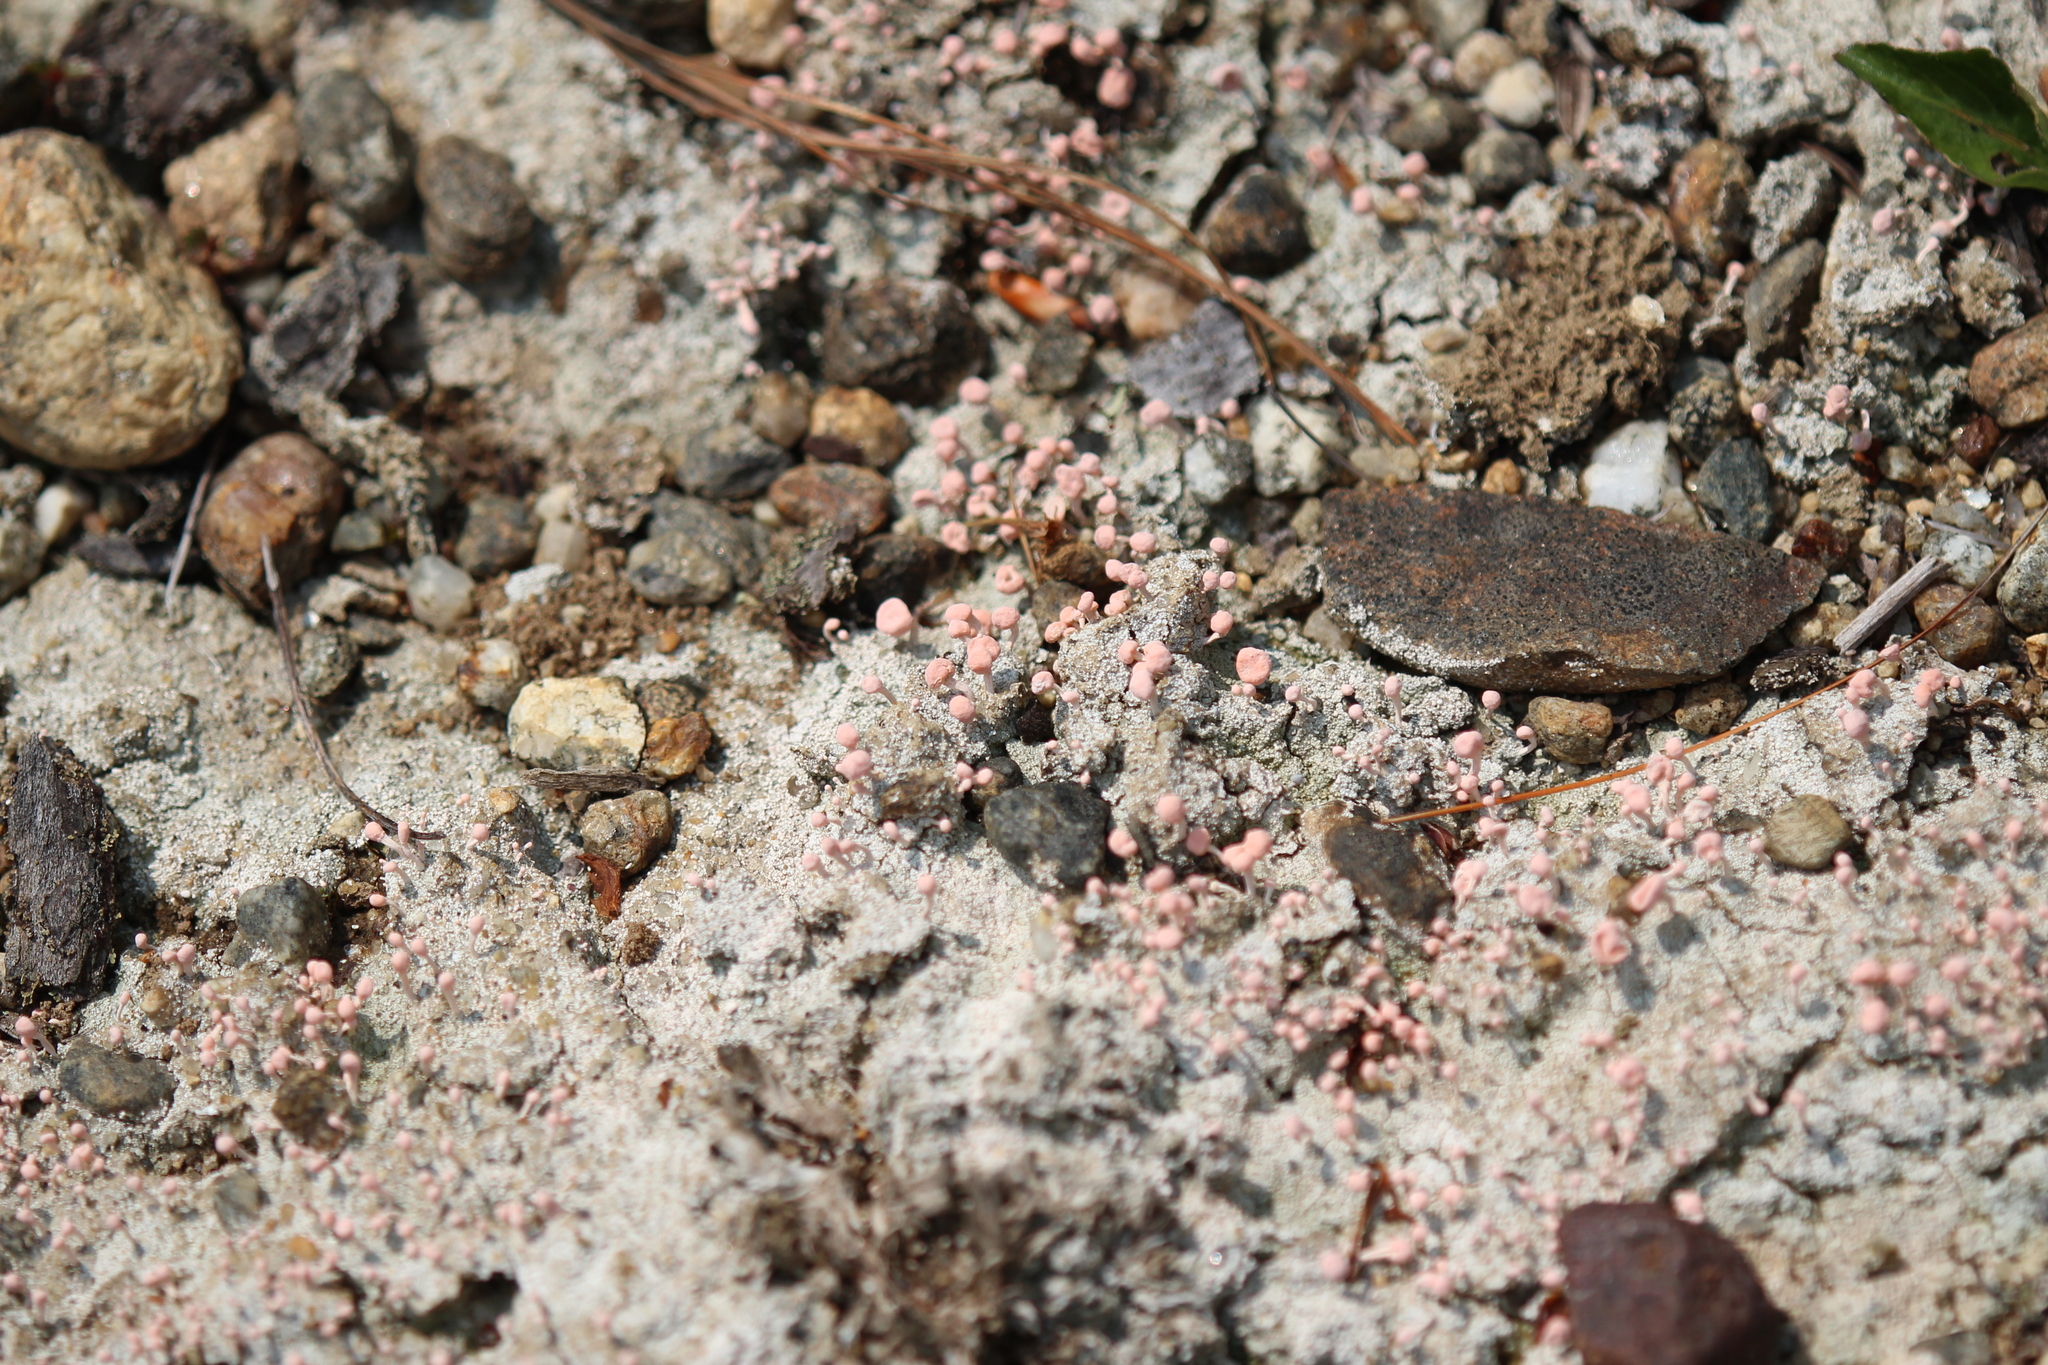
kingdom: Fungi
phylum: Ascomycota
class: Lecanoromycetes
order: Pertusariales
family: Icmadophilaceae
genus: Dibaeis
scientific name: Dibaeis baeomyces
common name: Pink earth lichen
